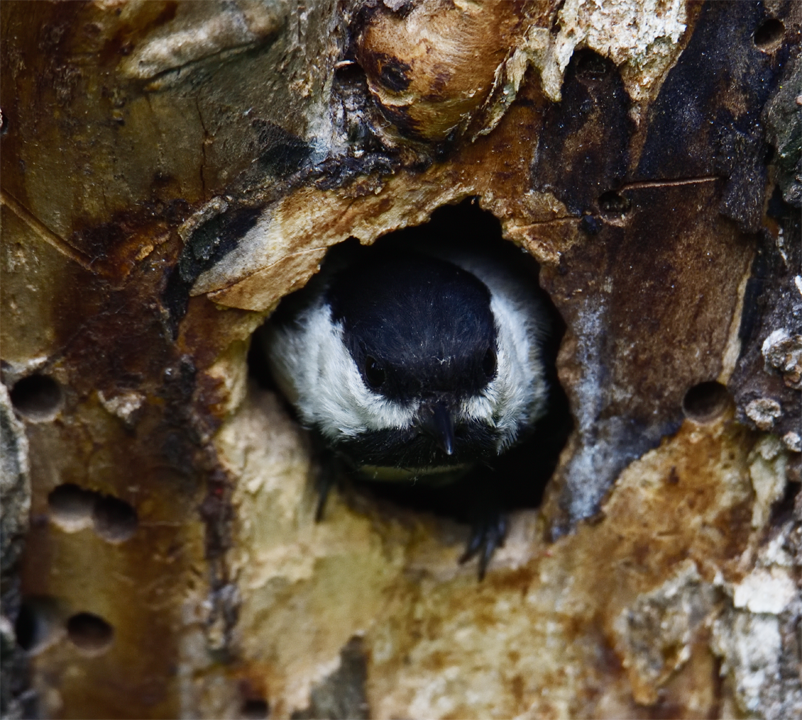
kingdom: Animalia
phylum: Chordata
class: Aves
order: Passeriformes
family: Paridae
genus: Poecile
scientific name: Poecile atricapillus
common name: Black-capped chickadee
